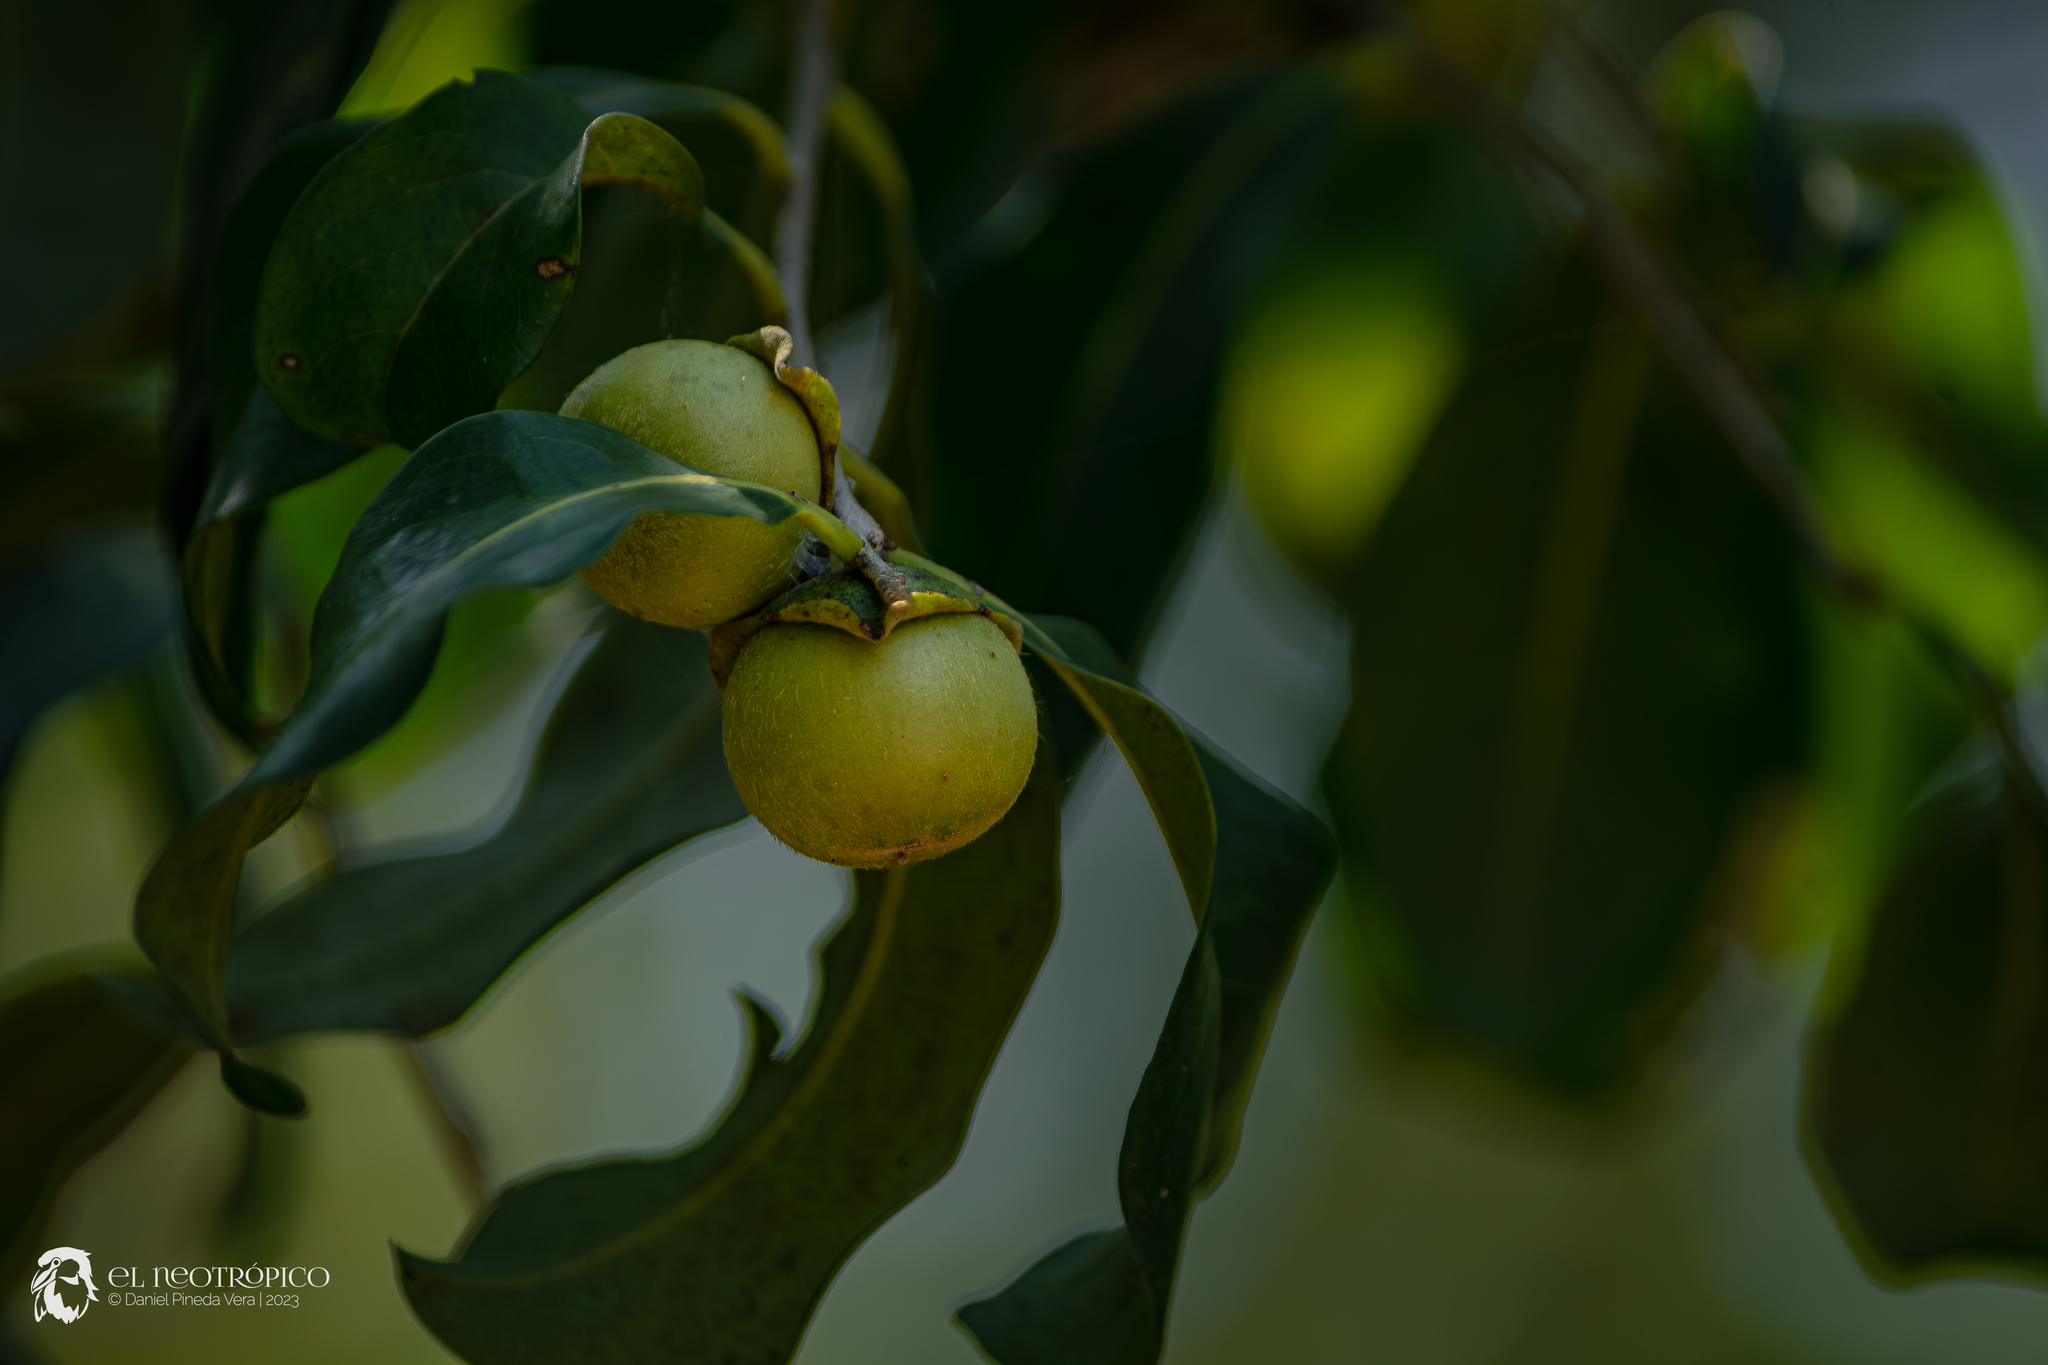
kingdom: Plantae
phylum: Tracheophyta
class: Magnoliopsida
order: Ericales
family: Ebenaceae
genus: Diospyros
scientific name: Diospyros salicifolia
